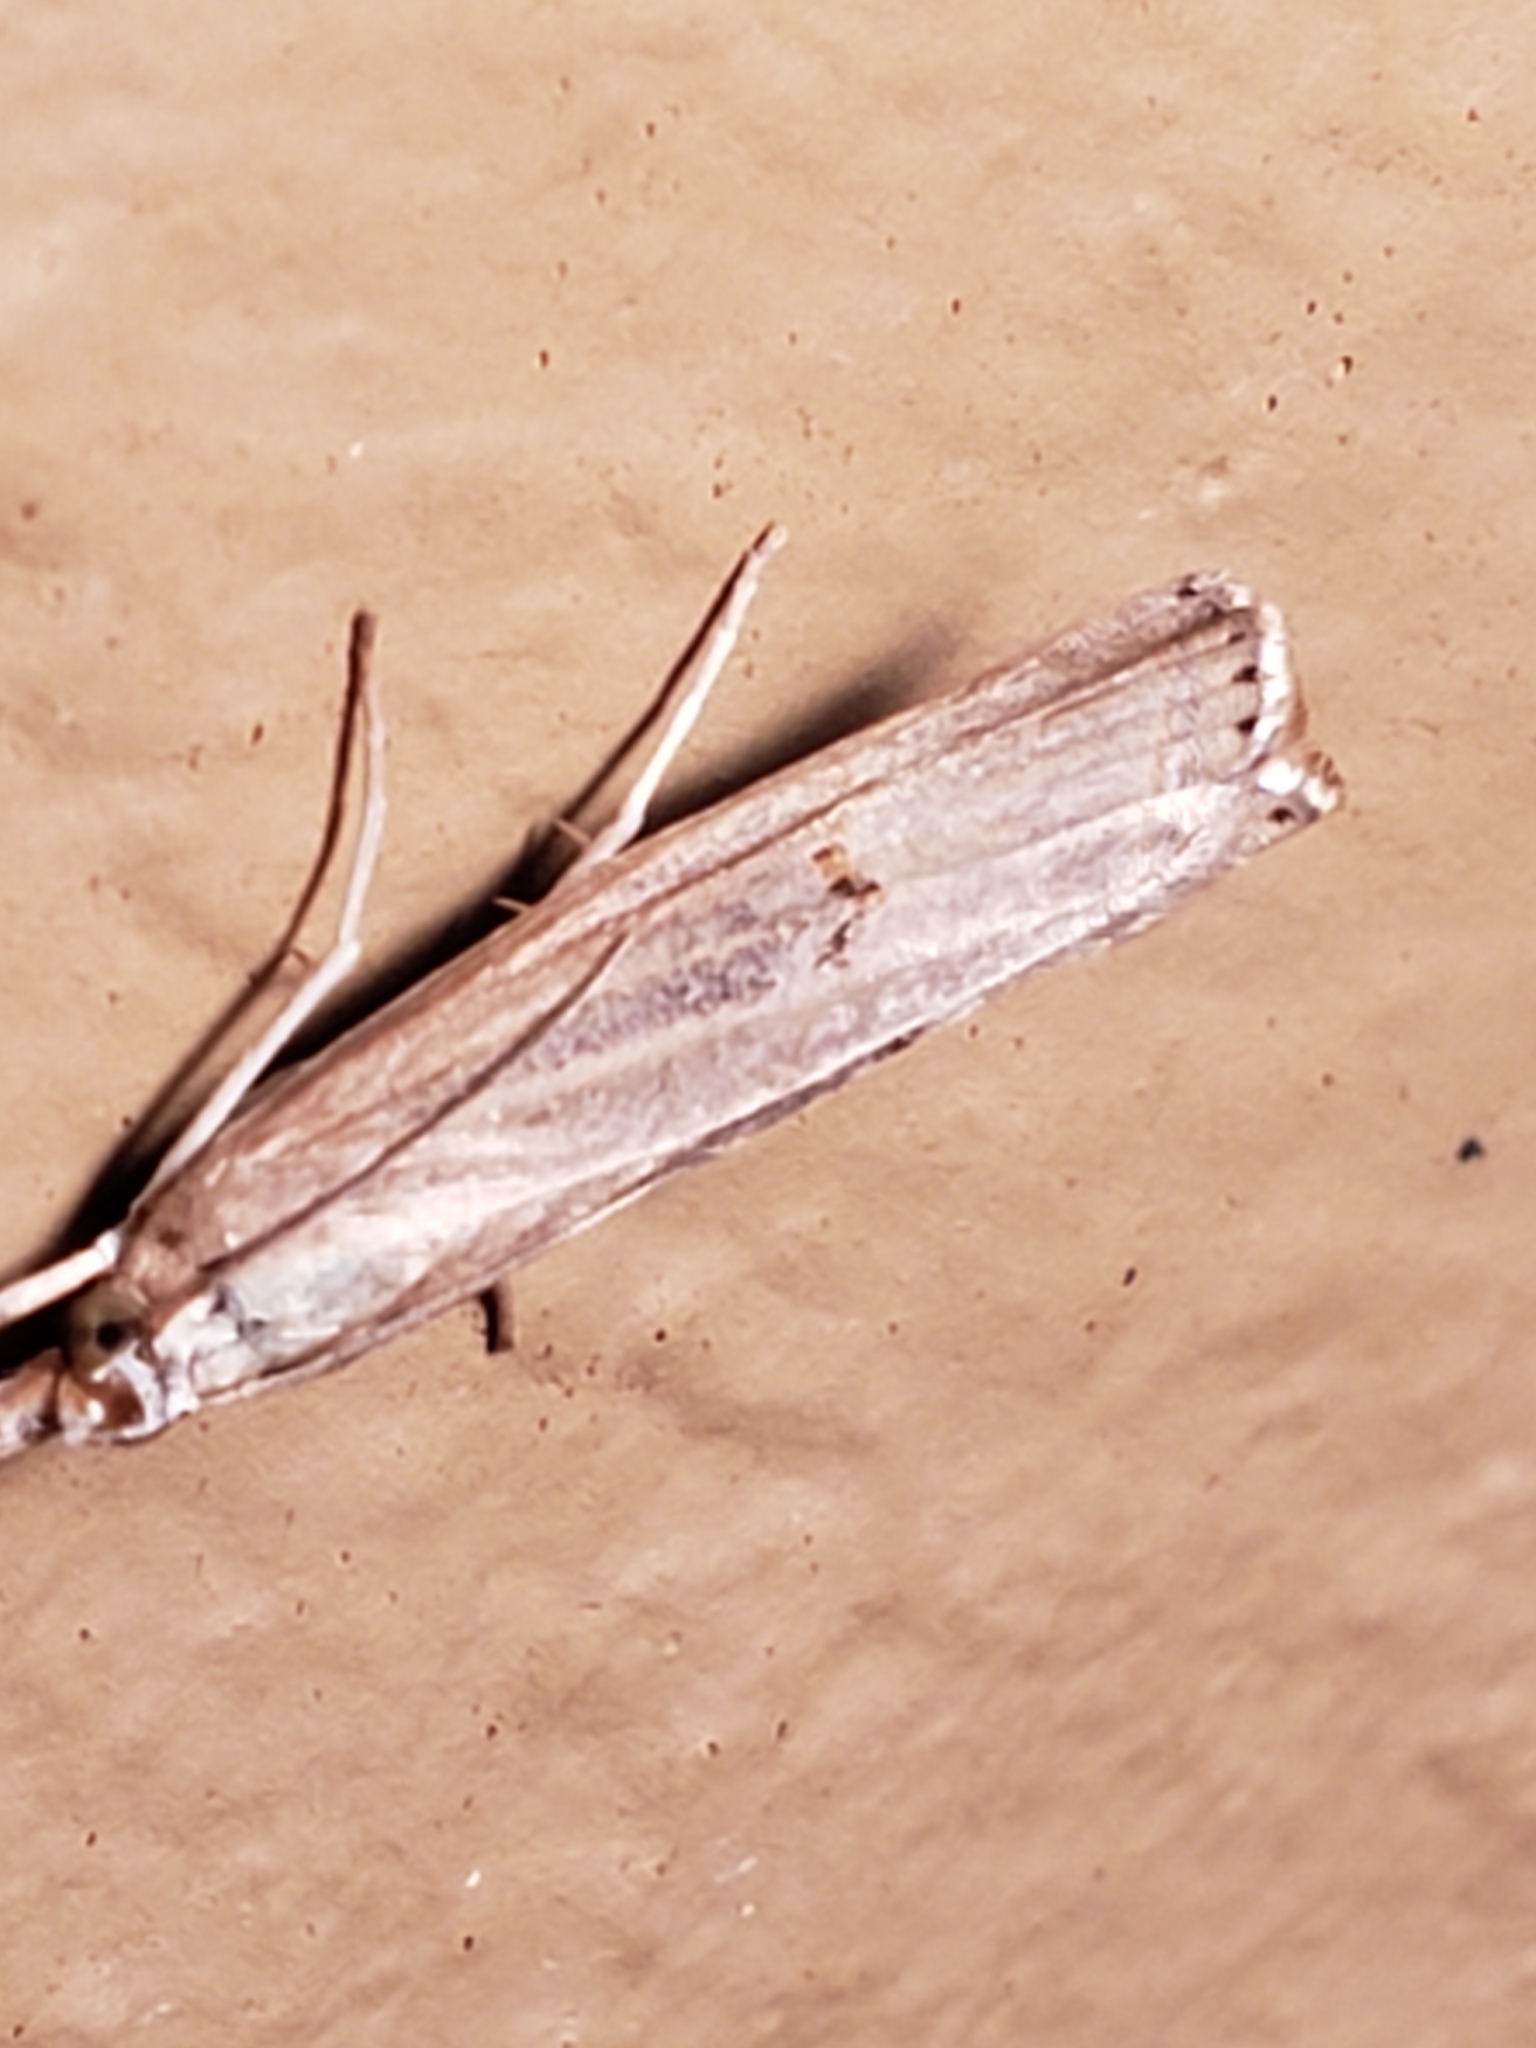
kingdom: Animalia
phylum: Arthropoda
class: Insecta
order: Lepidoptera
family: Crambidae
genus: Parapediasia
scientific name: Parapediasia teterellus
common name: Bluegrass webworm moth
